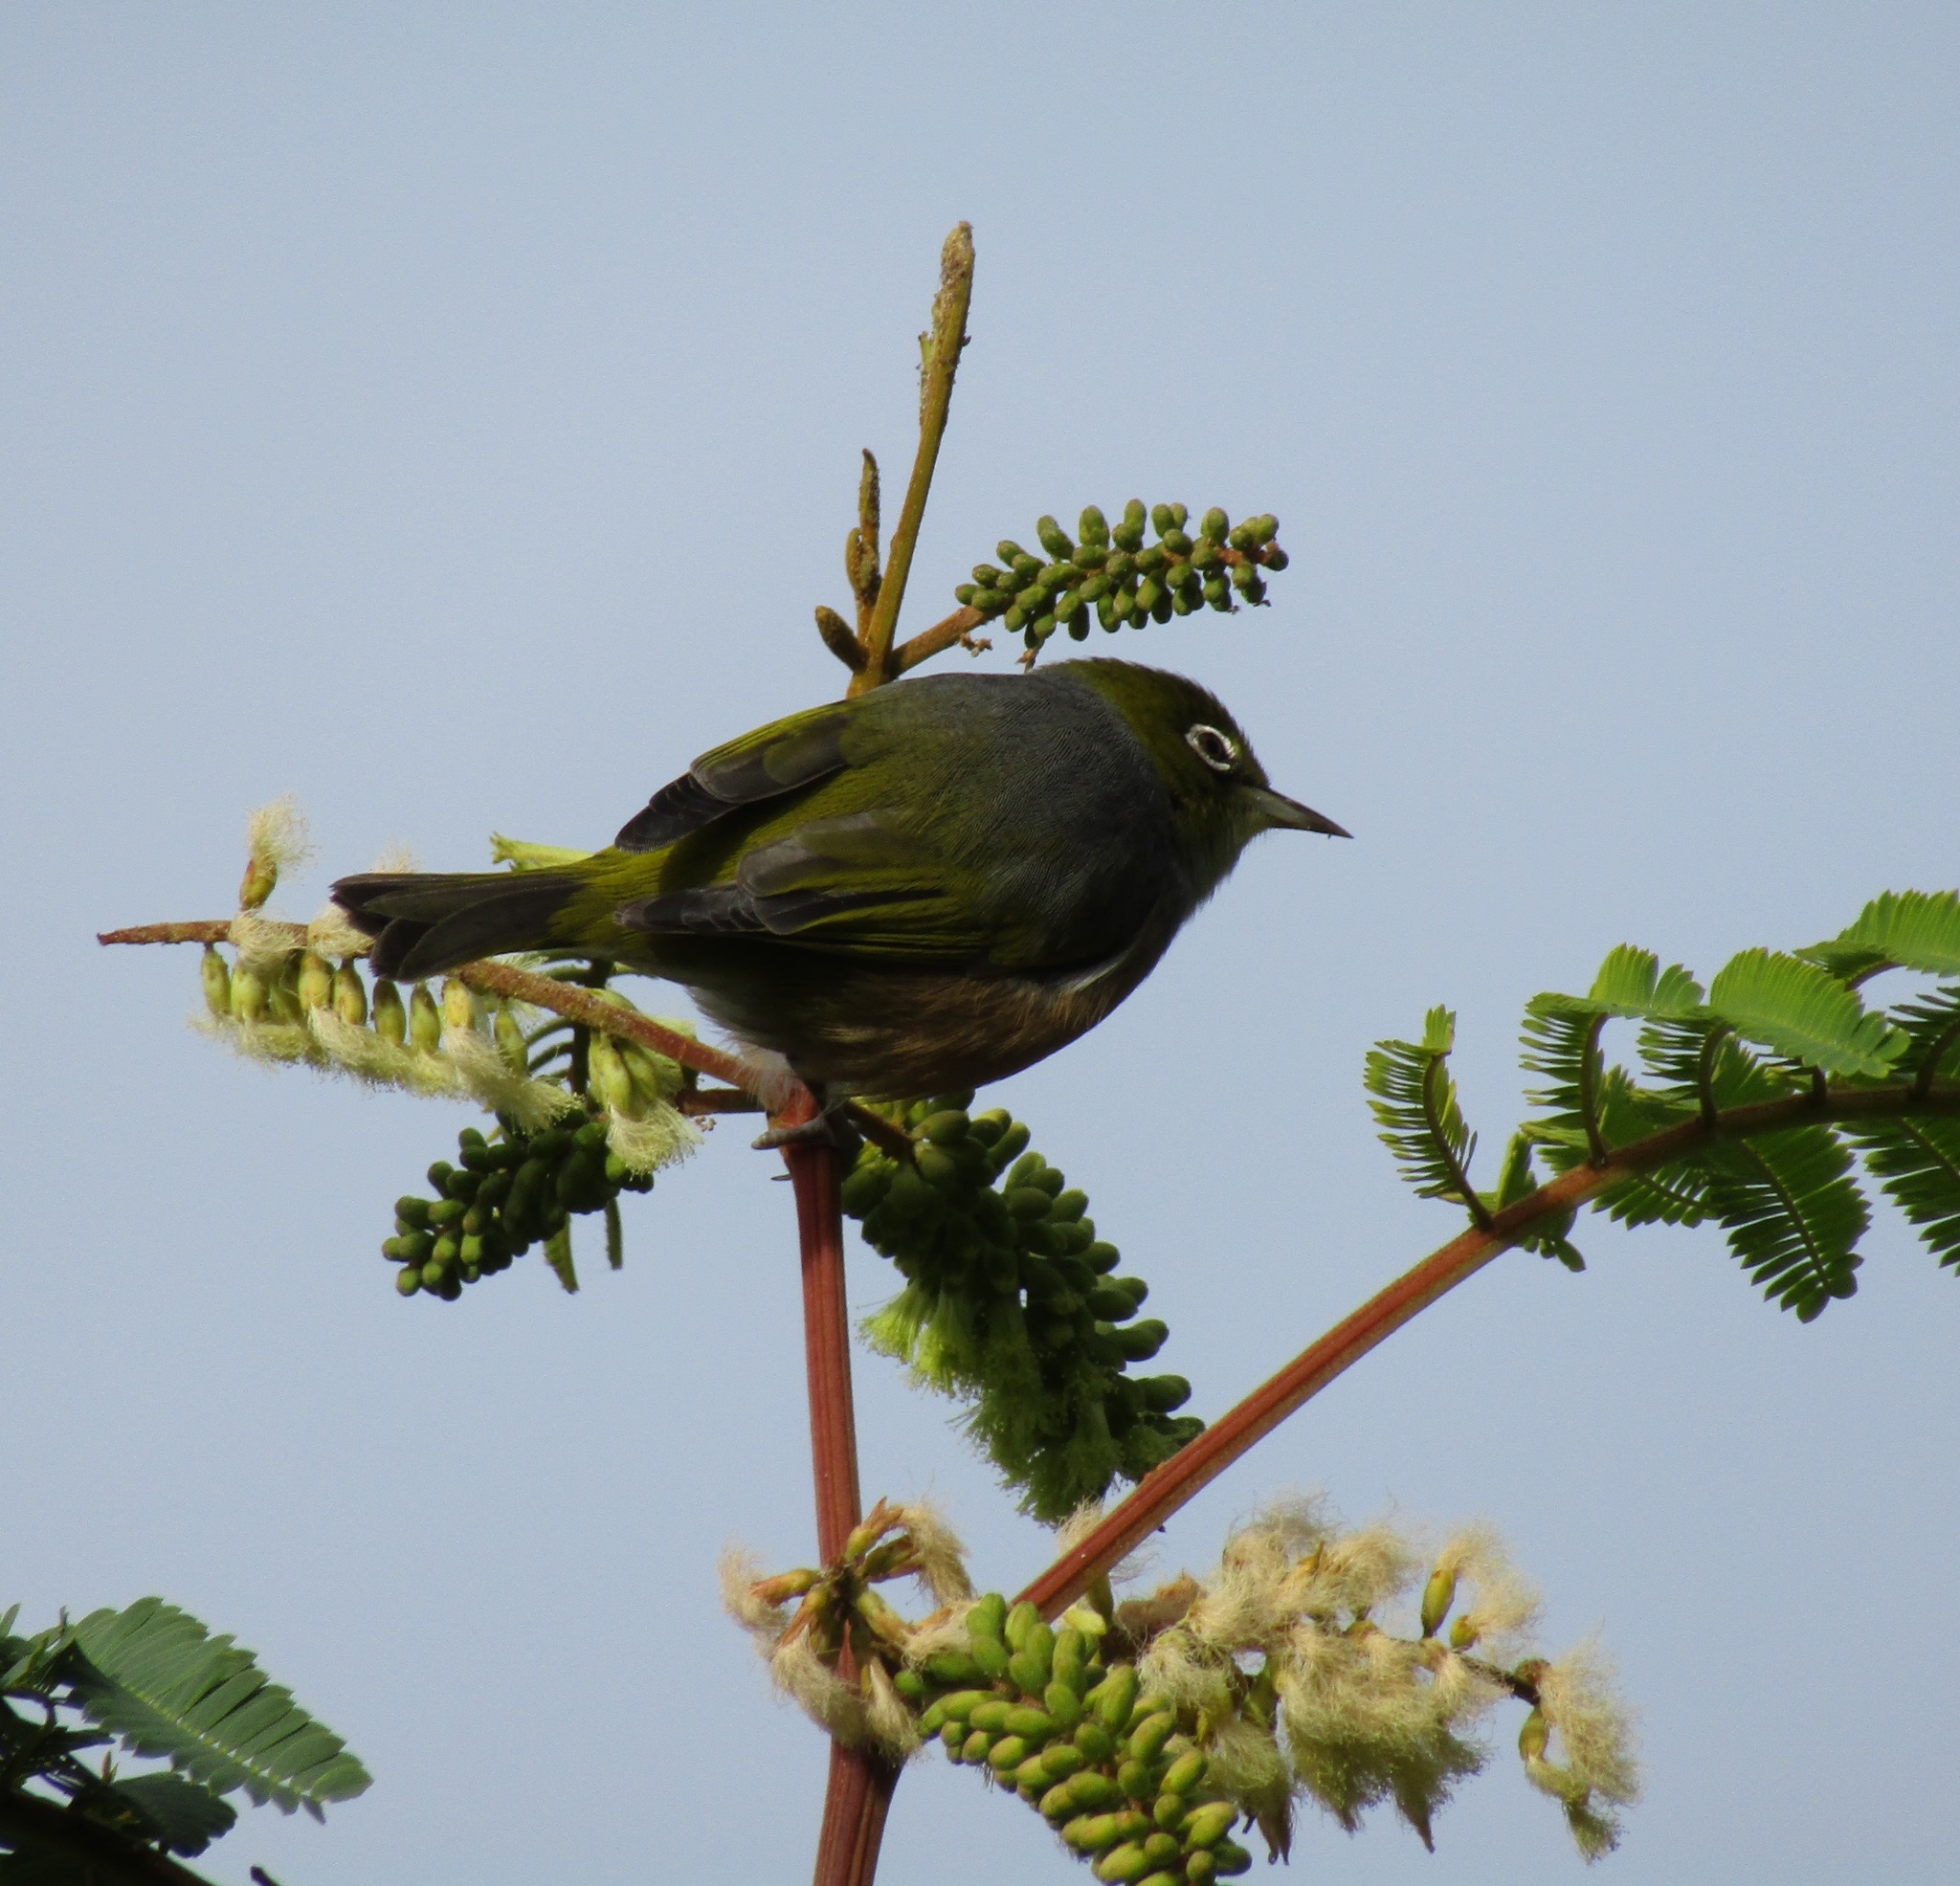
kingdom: Animalia
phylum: Chordata
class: Aves
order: Passeriformes
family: Zosteropidae
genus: Zosterops
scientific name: Zosterops lateralis
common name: Silvereye
